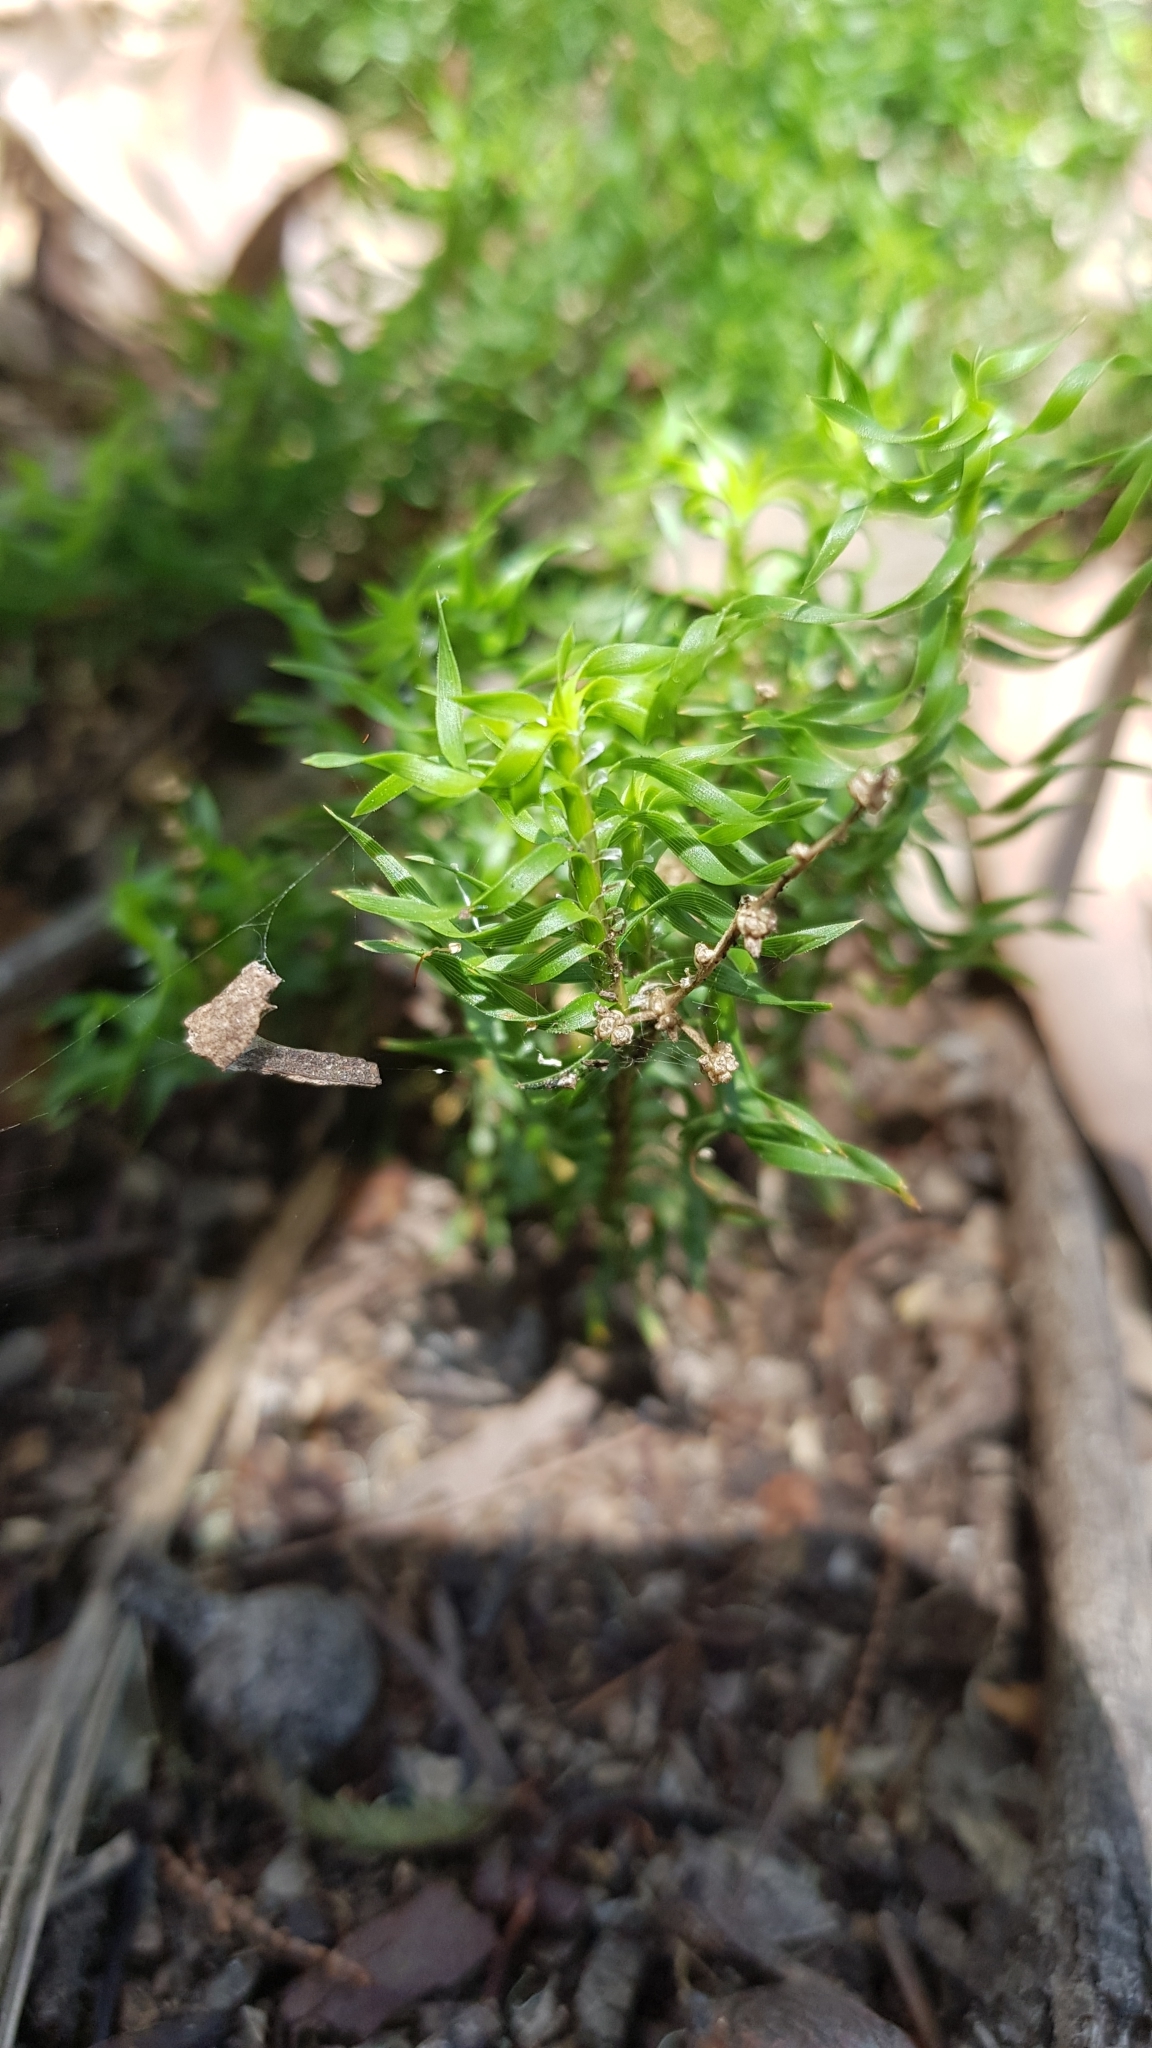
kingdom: Plantae
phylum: Tracheophyta
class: Liliopsida
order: Asparagales
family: Asparagaceae
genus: Lomandra
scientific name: Lomandra obliqua
